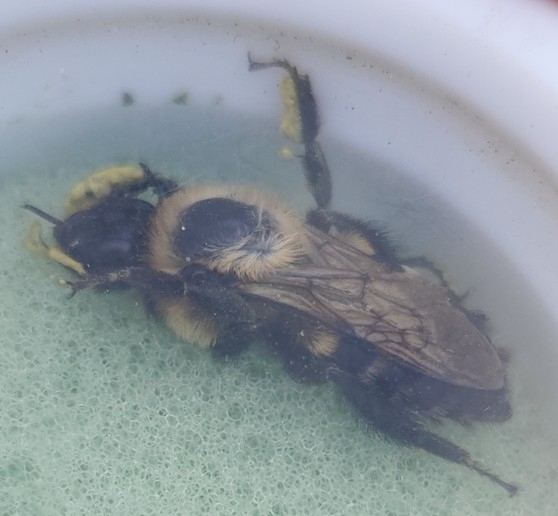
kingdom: Animalia
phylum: Arthropoda
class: Insecta
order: Hymenoptera
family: Apidae
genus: Bombus
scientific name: Bombus griseocollis
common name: Brown-belted bumble bee
